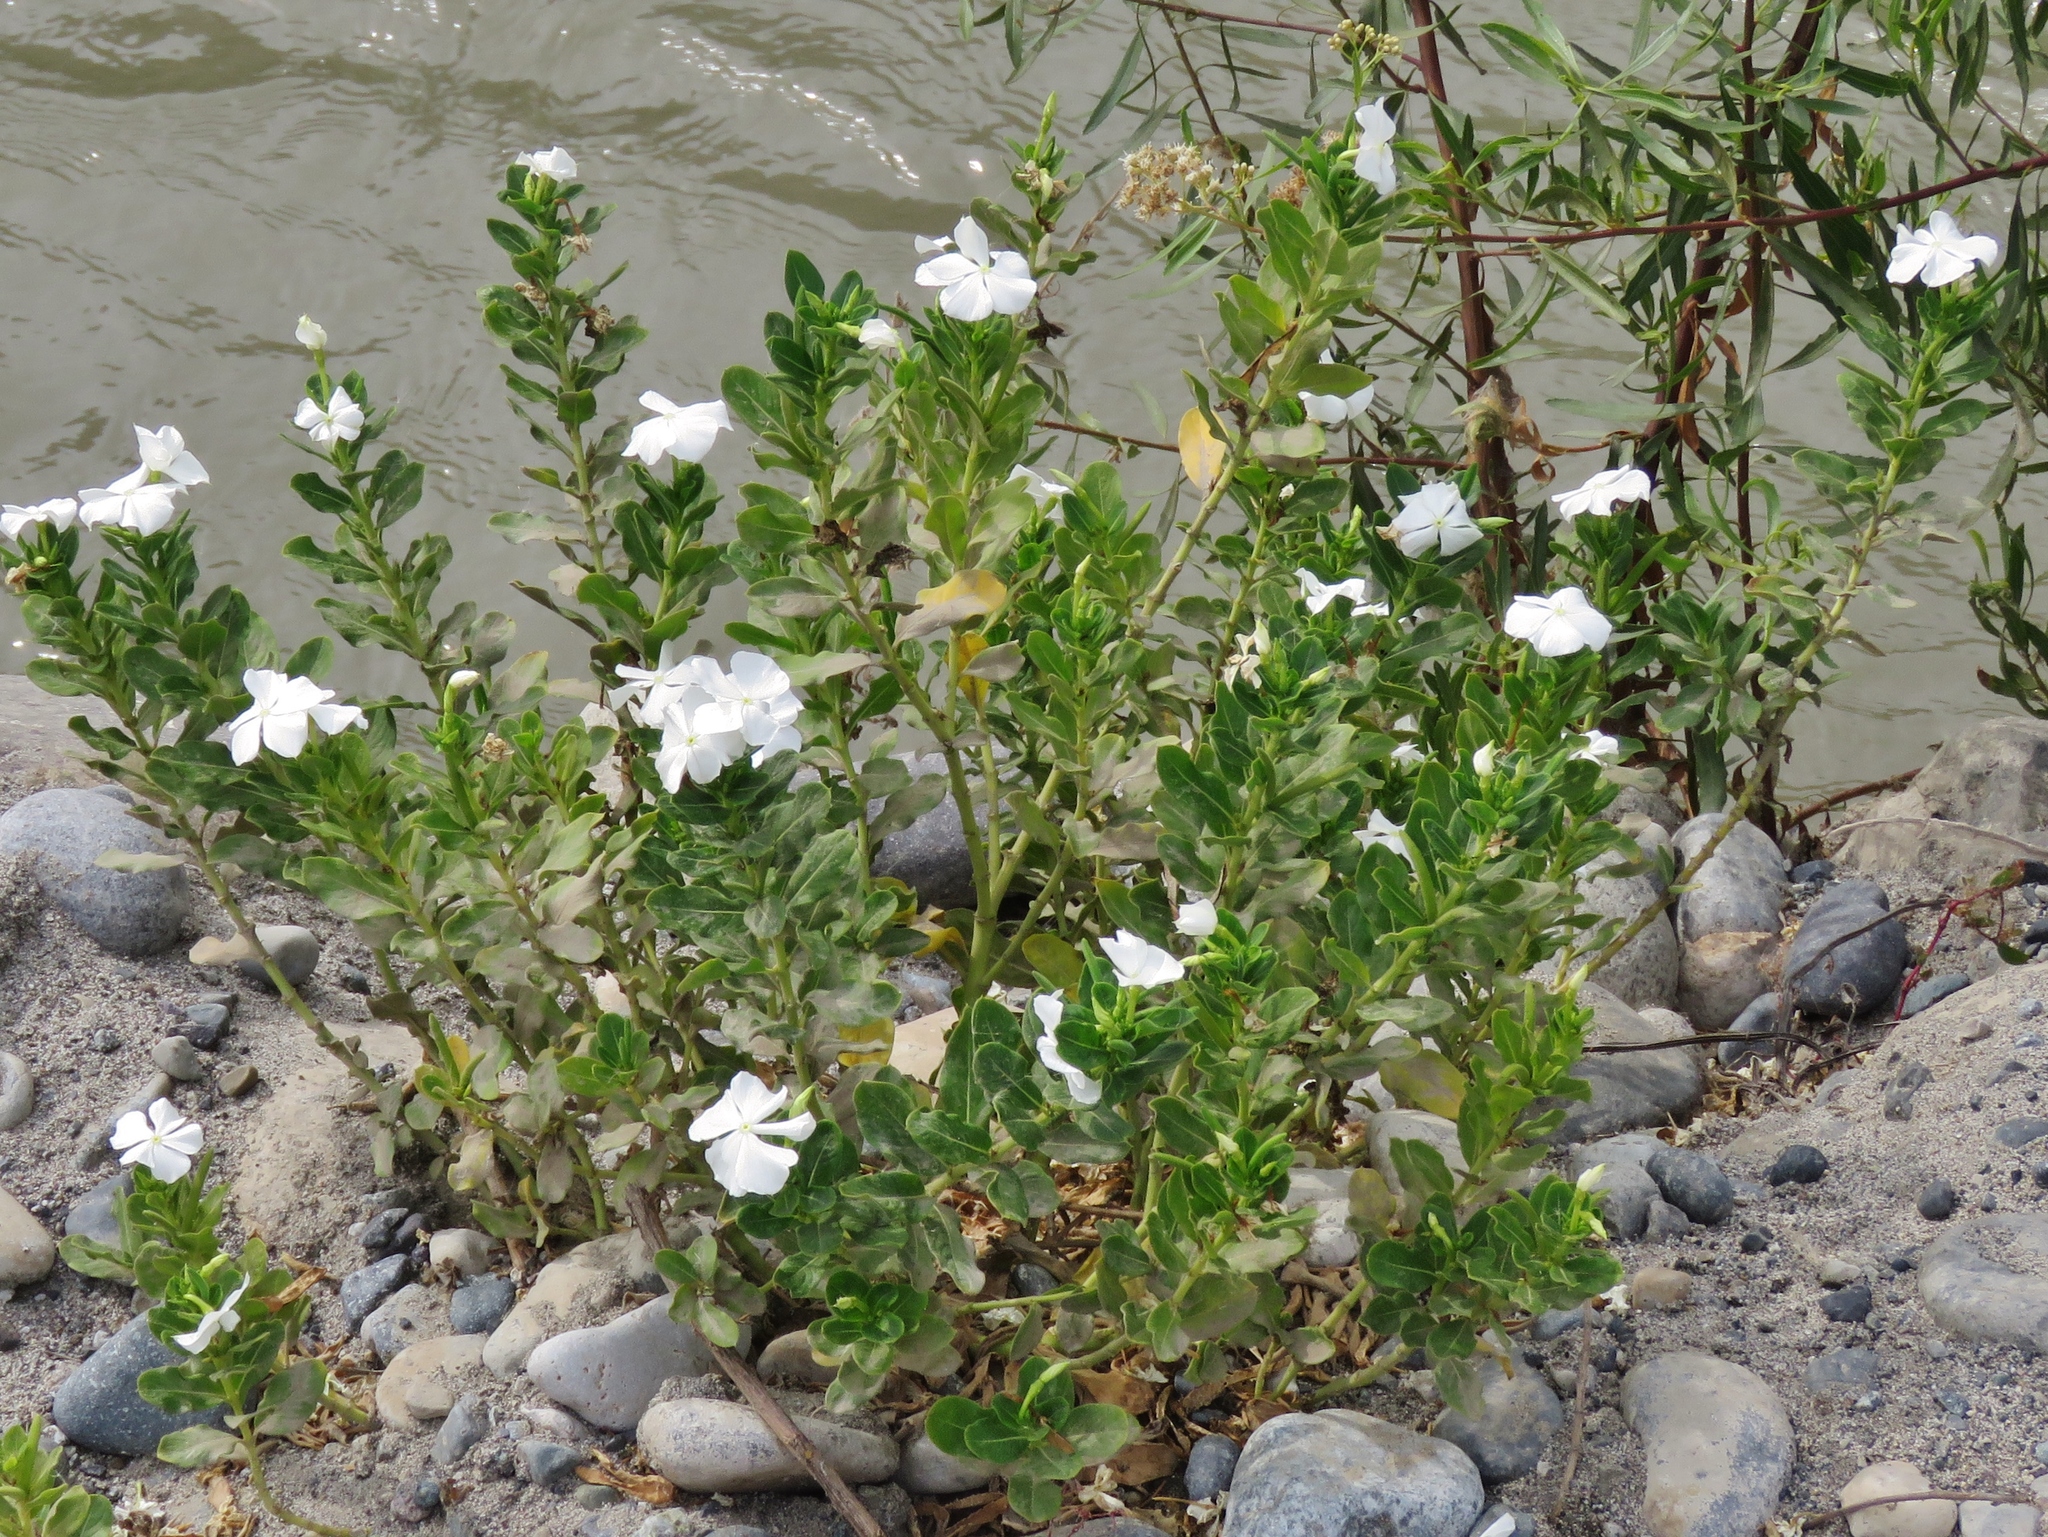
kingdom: Plantae
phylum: Tracheophyta
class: Magnoliopsida
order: Gentianales
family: Apocynaceae
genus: Catharanthus
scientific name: Catharanthus roseus
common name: Madagascar periwinkle
